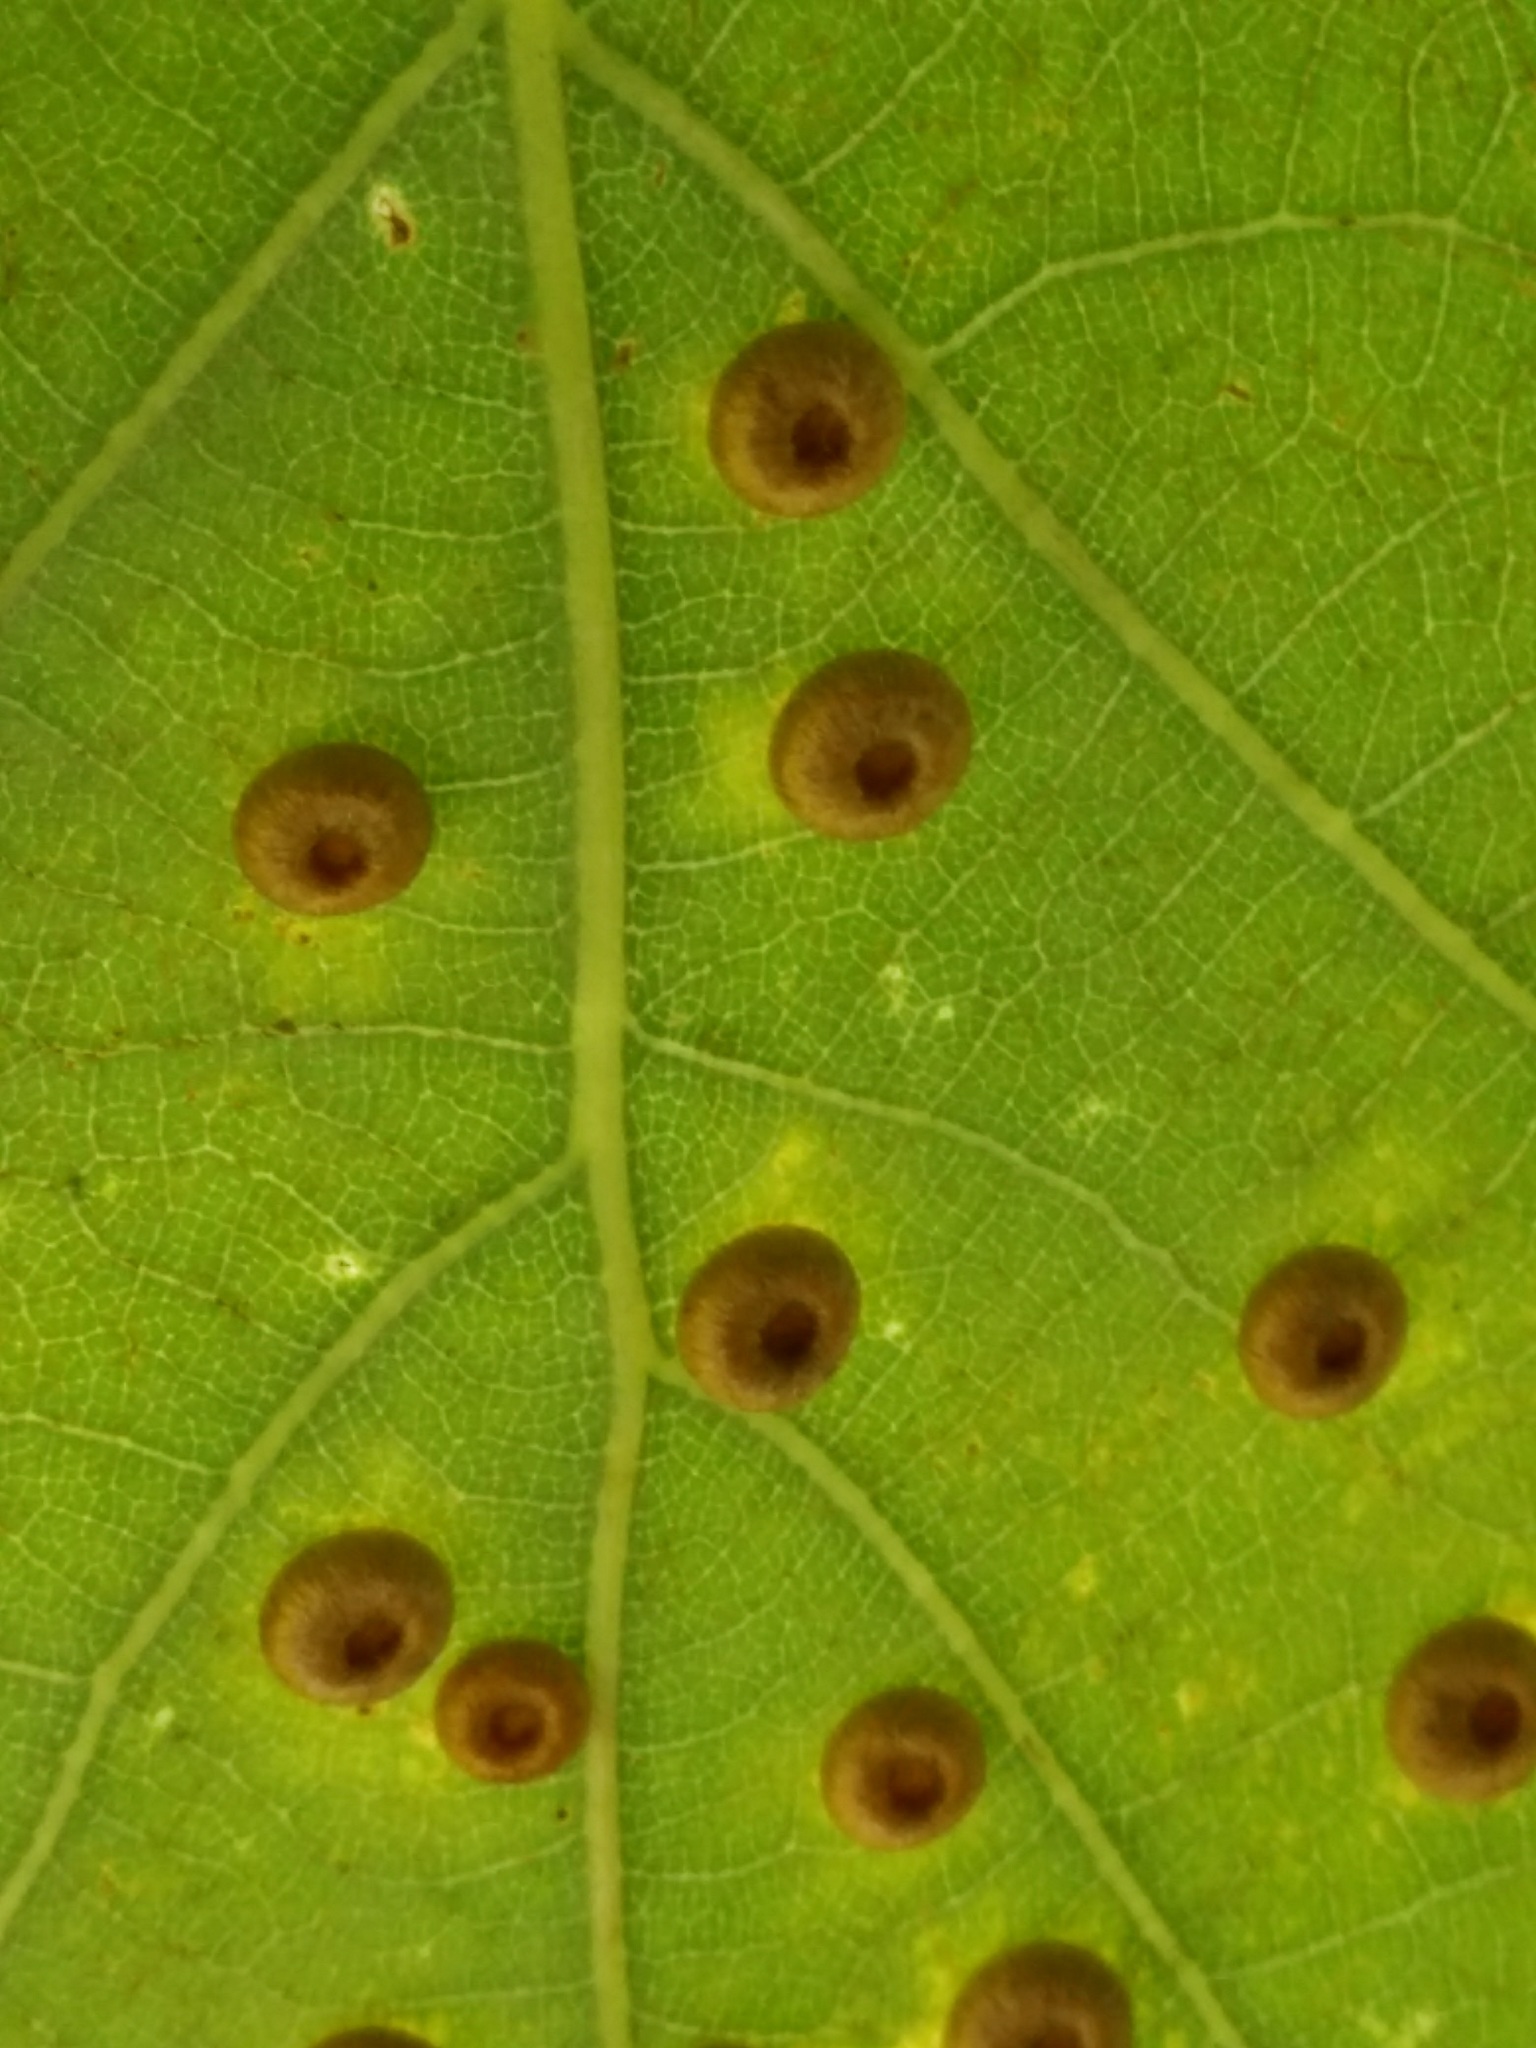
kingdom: Animalia
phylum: Arthropoda
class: Insecta
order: Hymenoptera
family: Cynipidae
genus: Neuroterus
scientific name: Neuroterus numismalis
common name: Silk-button spangle gall
